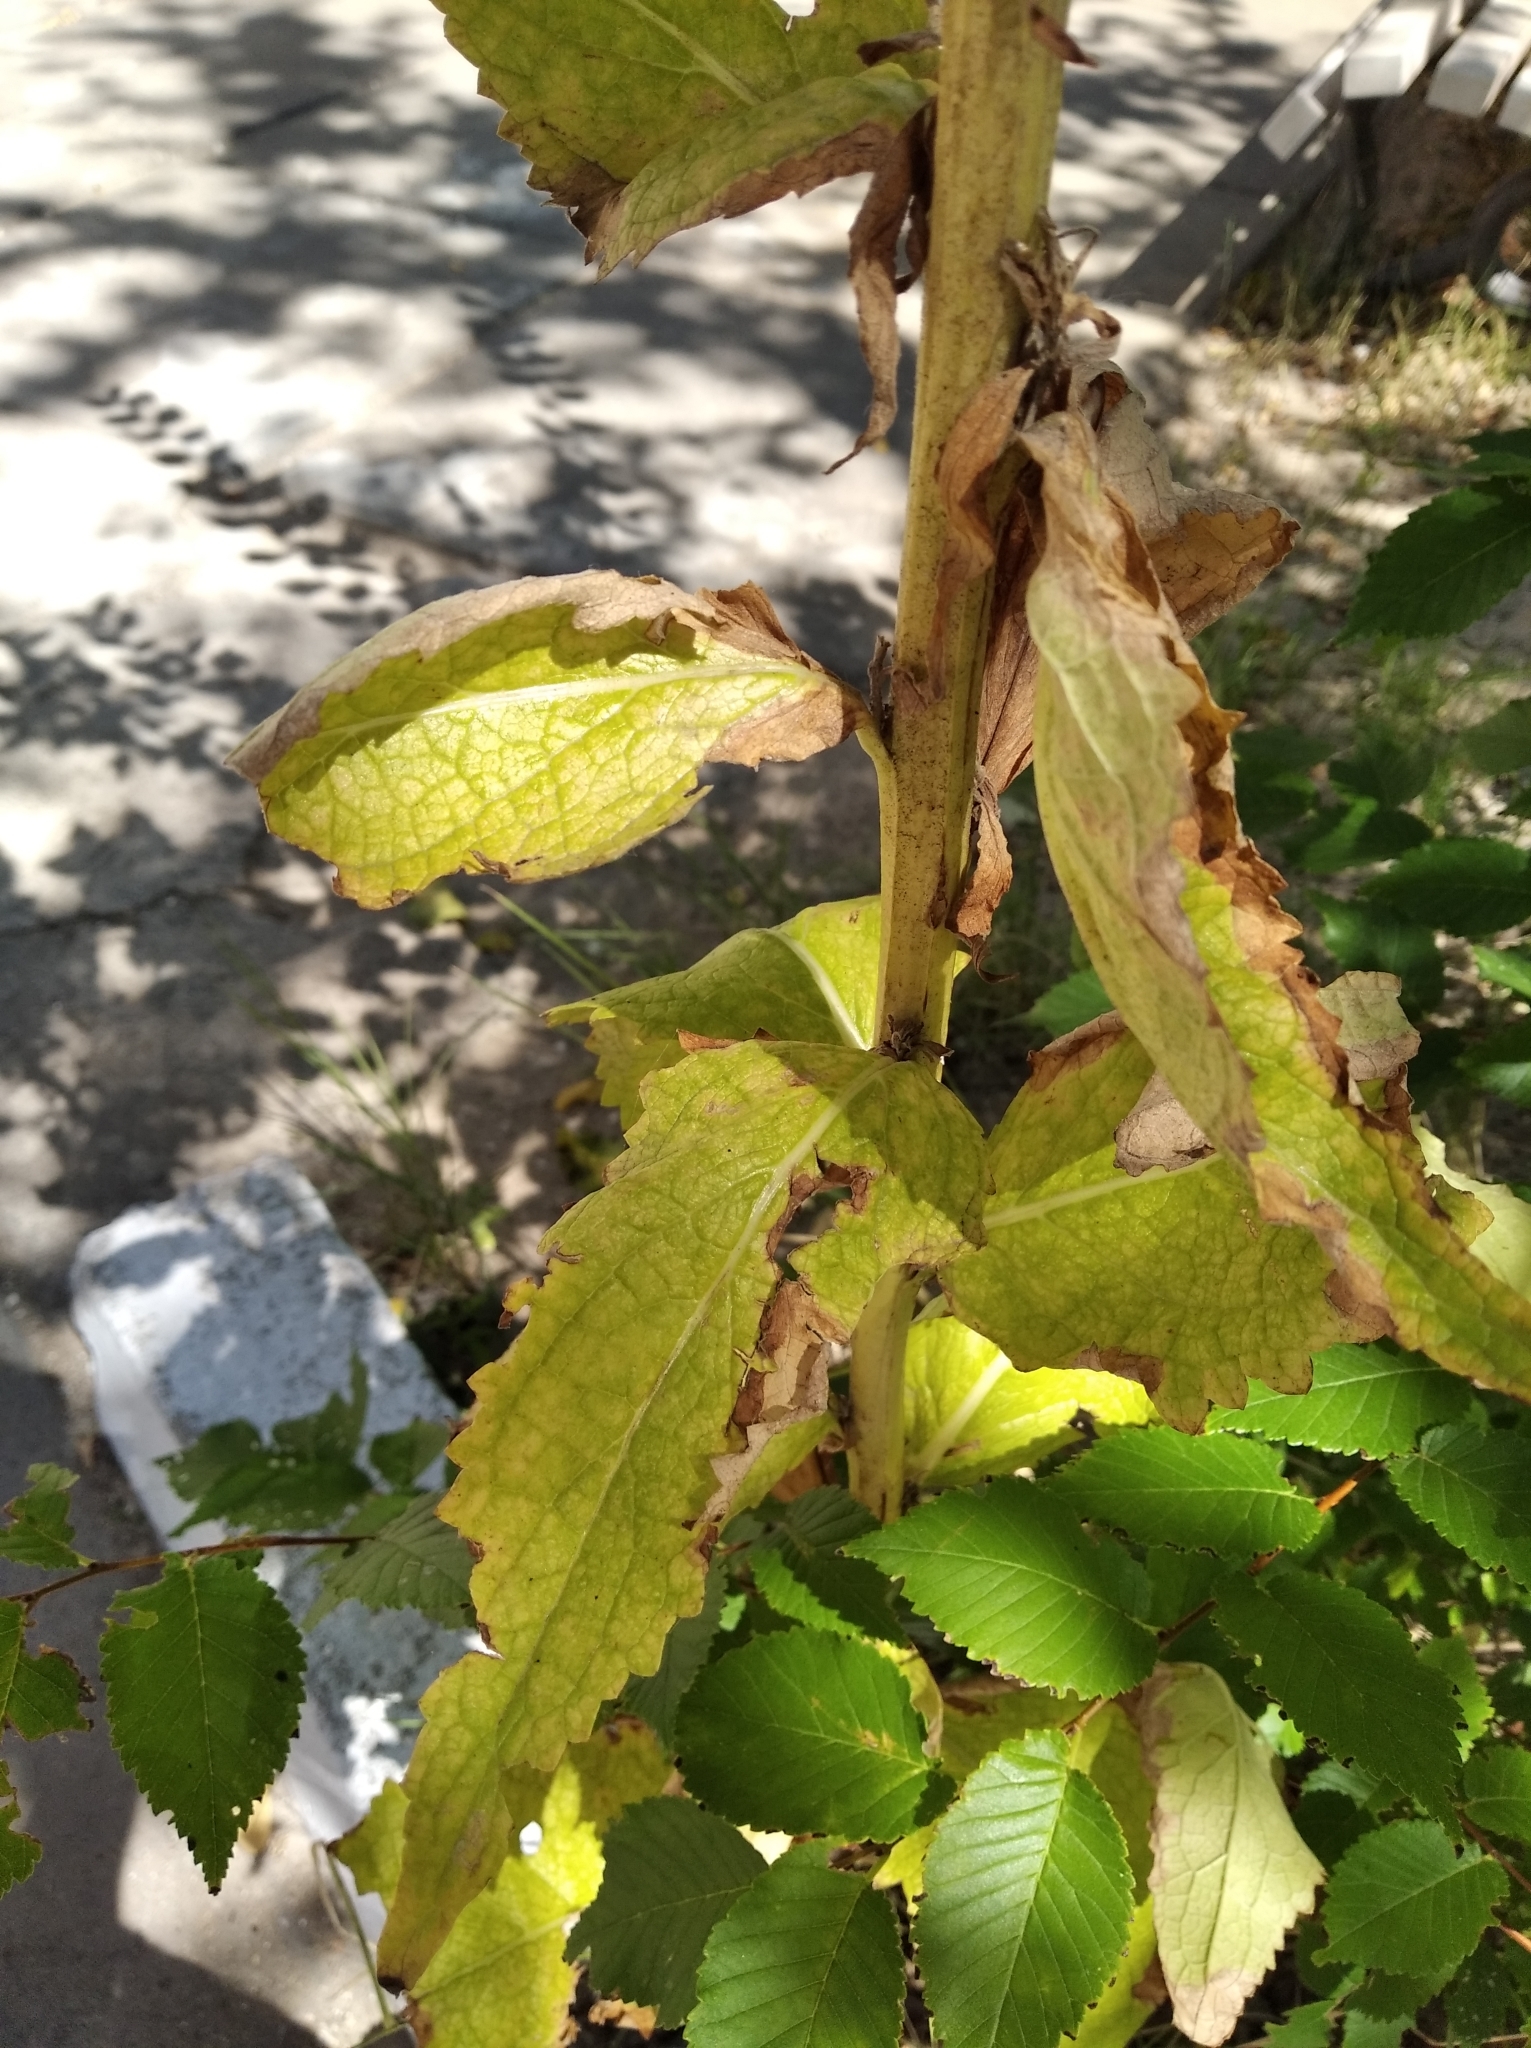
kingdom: Plantae
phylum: Tracheophyta
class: Magnoliopsida
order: Lamiales
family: Scrophulariaceae
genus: Verbascum
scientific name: Verbascum lychnitis
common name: White mullein
